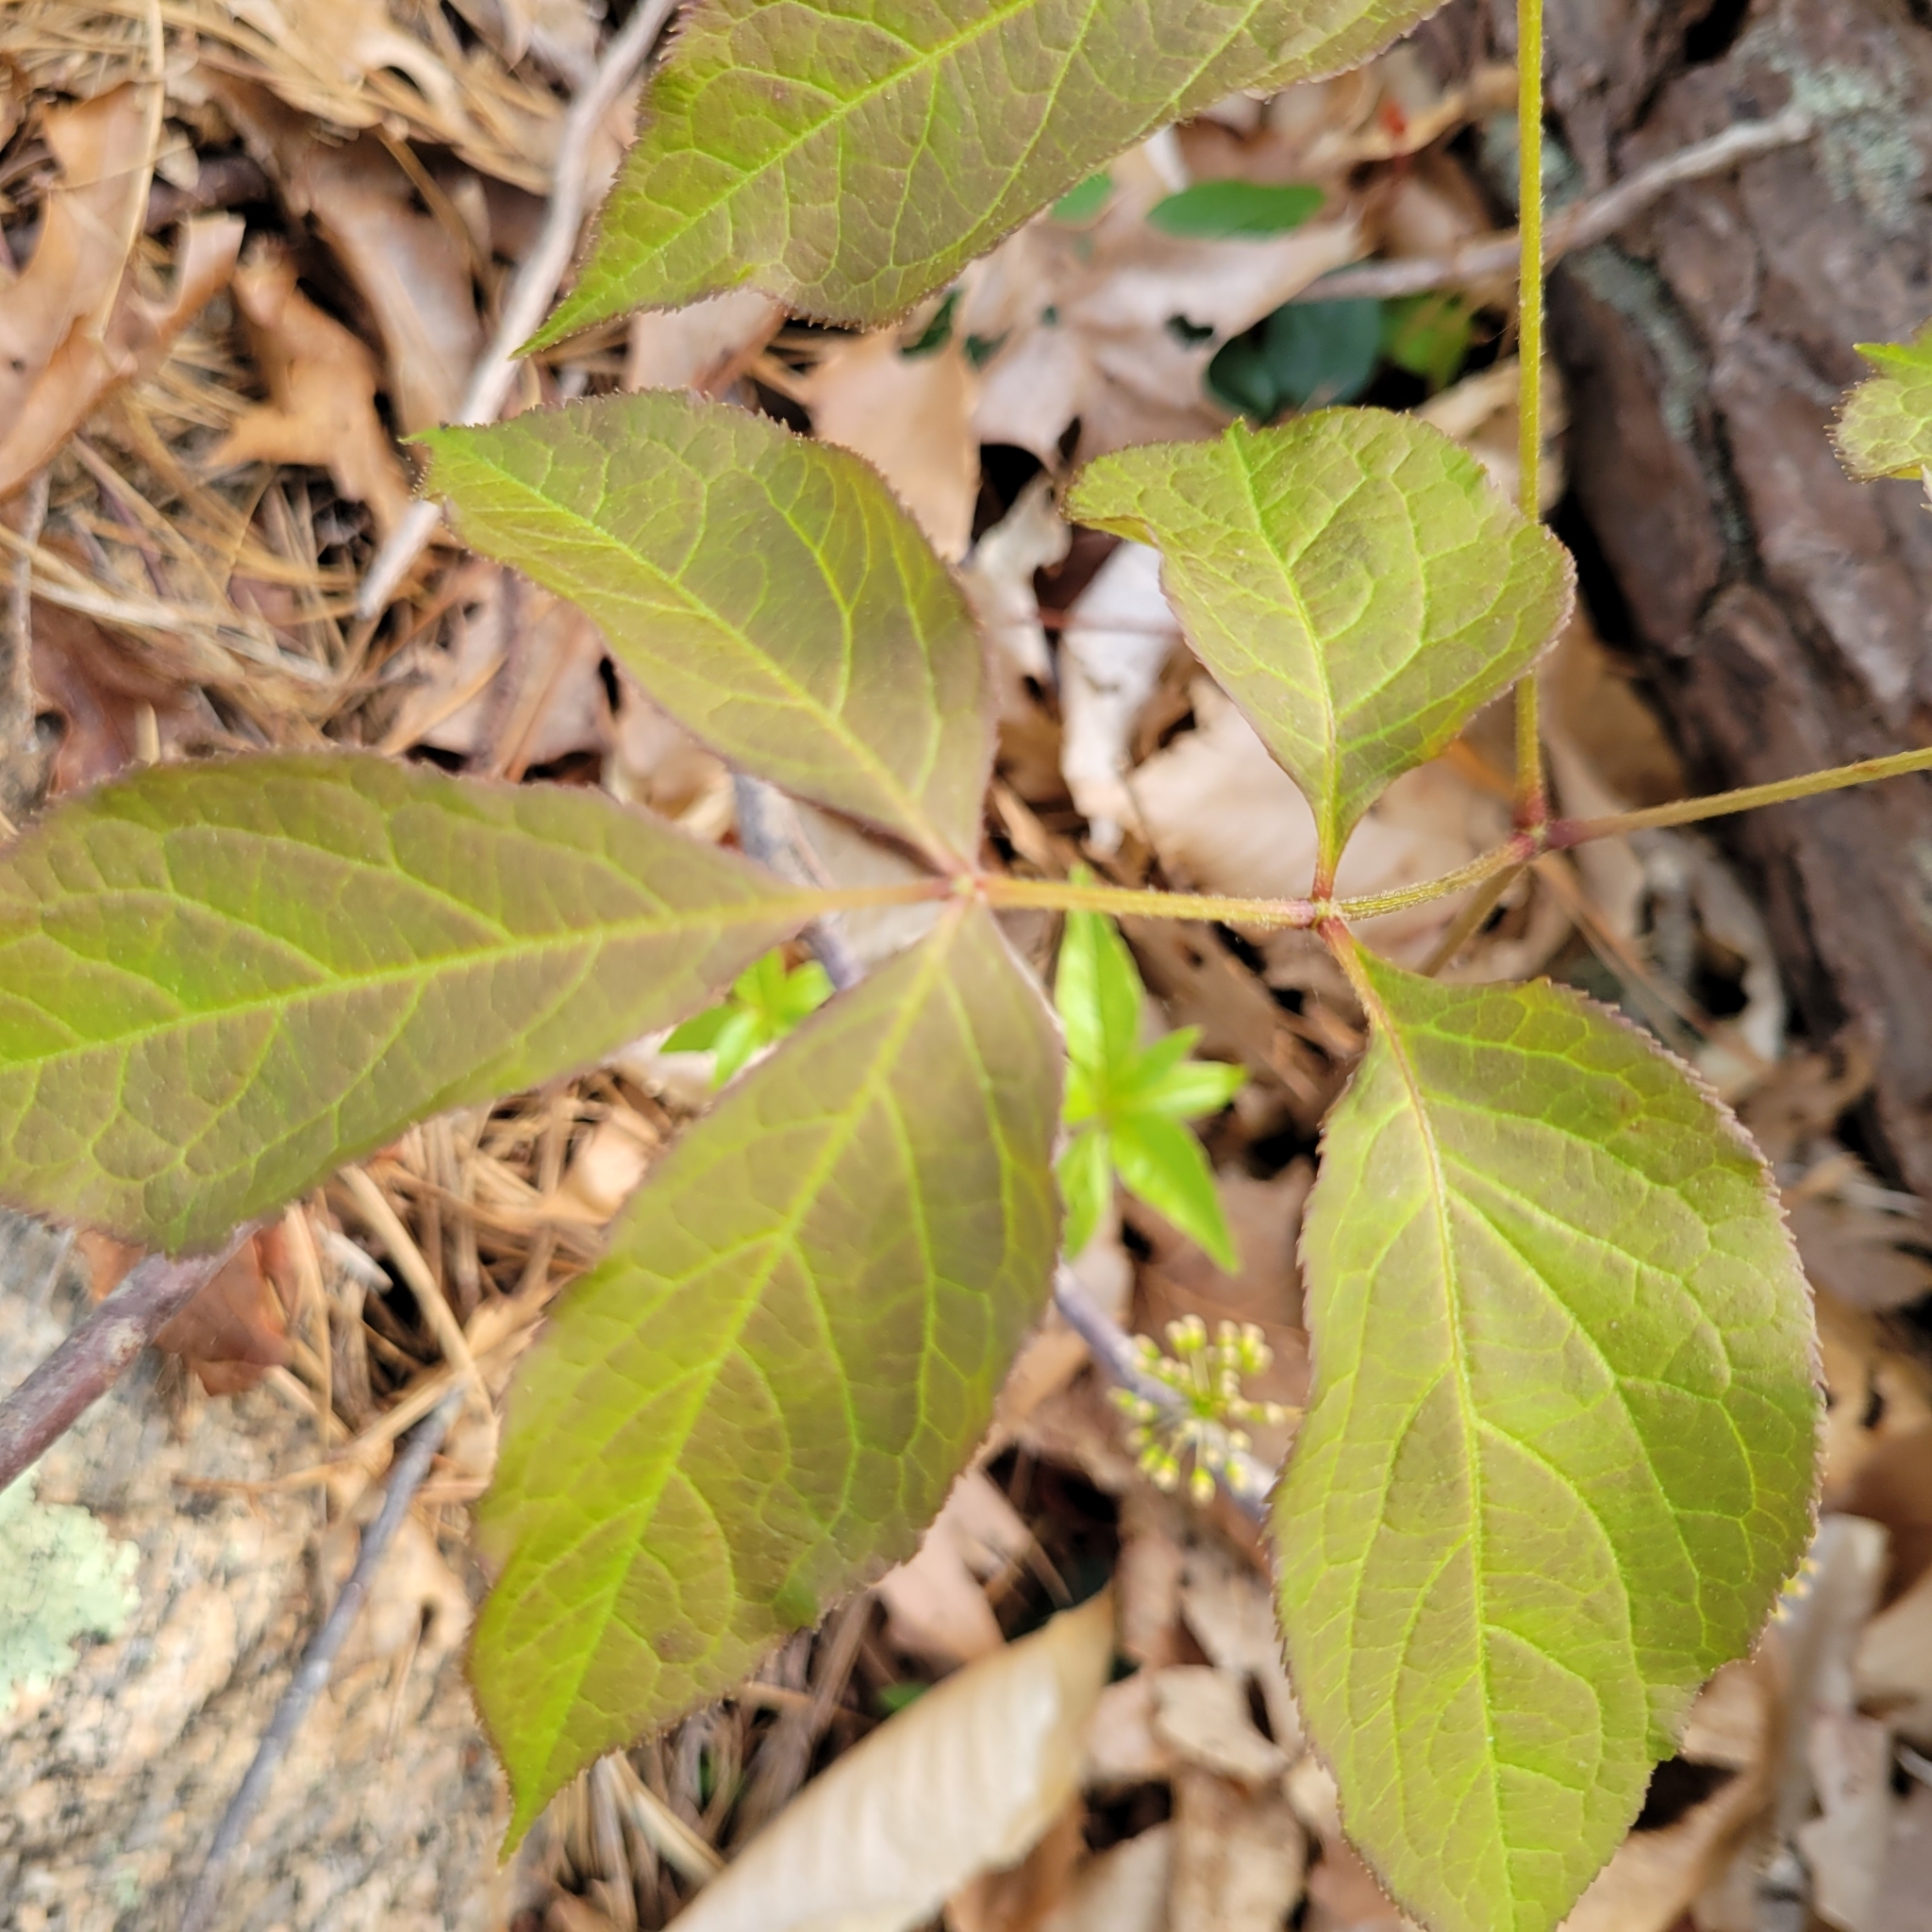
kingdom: Plantae
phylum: Tracheophyta
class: Magnoliopsida
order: Apiales
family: Araliaceae
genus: Aralia
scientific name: Aralia nudicaulis
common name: Wild sarsaparilla
